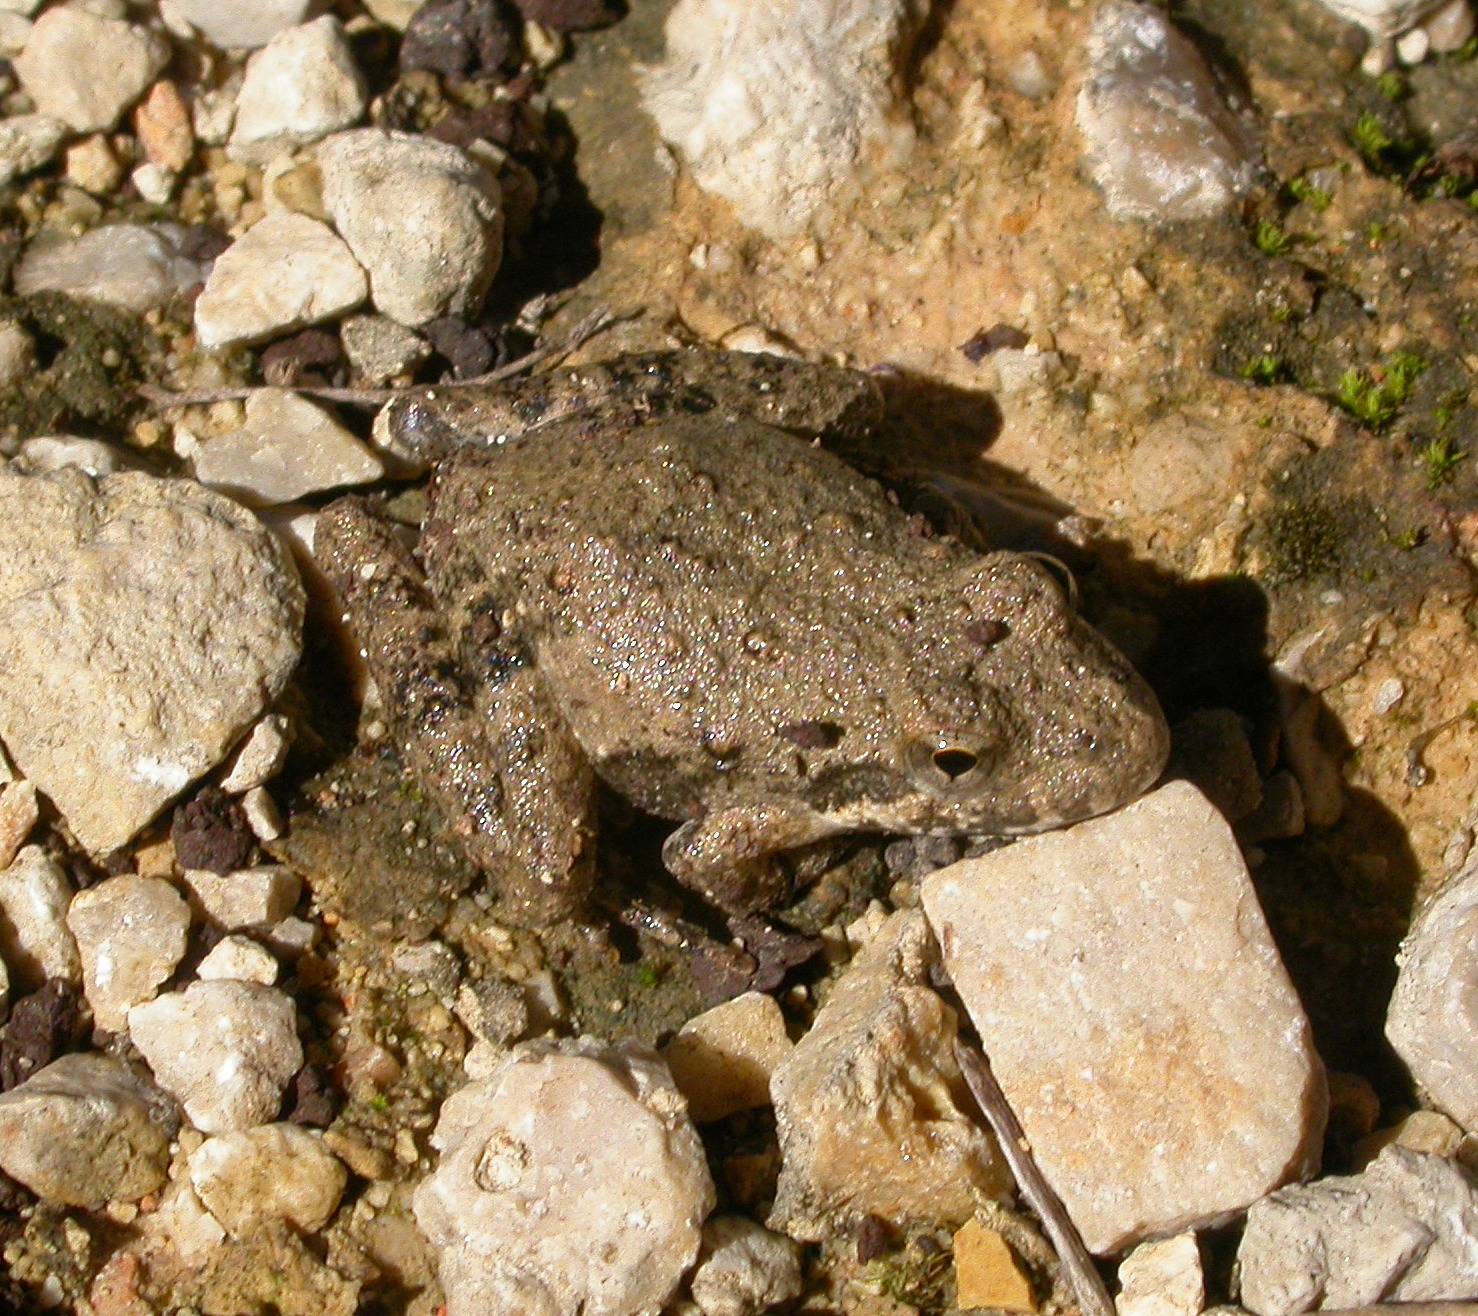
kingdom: Animalia
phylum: Chordata
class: Amphibia
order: Anura
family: Hylidae
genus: Acris
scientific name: Acris blanchardi
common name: Blanchard's cricket frog
